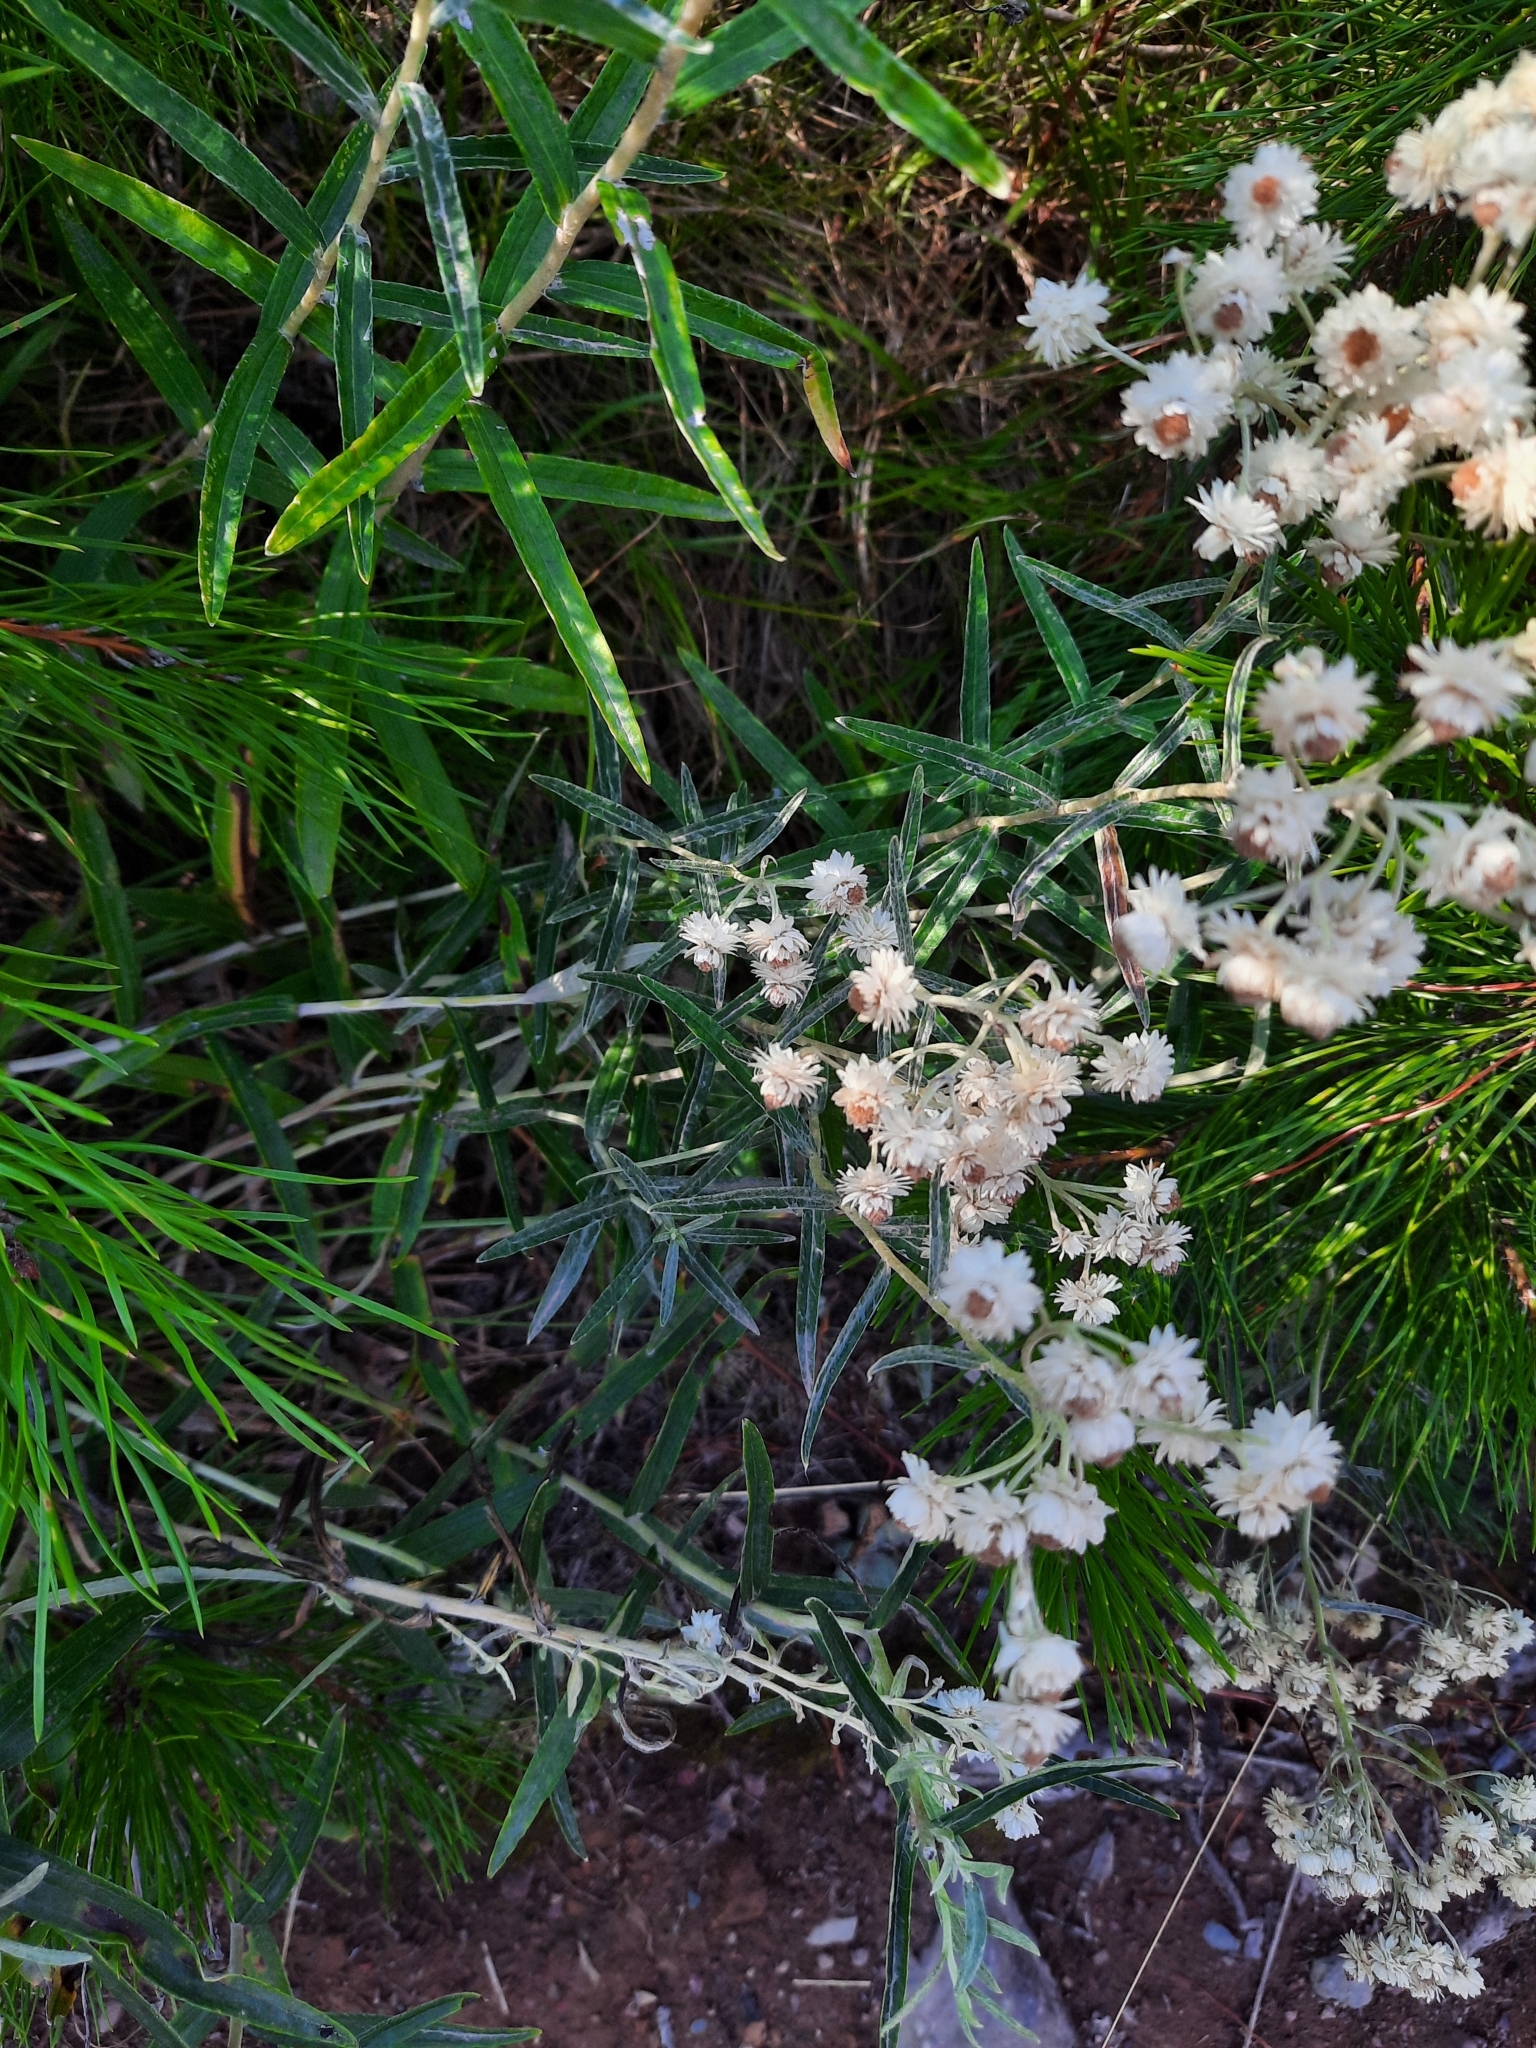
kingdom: Plantae
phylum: Tracheophyta
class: Magnoliopsida
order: Asterales
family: Asteraceae
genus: Anaphalis
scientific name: Anaphalis margaritacea
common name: Pearly everlasting
